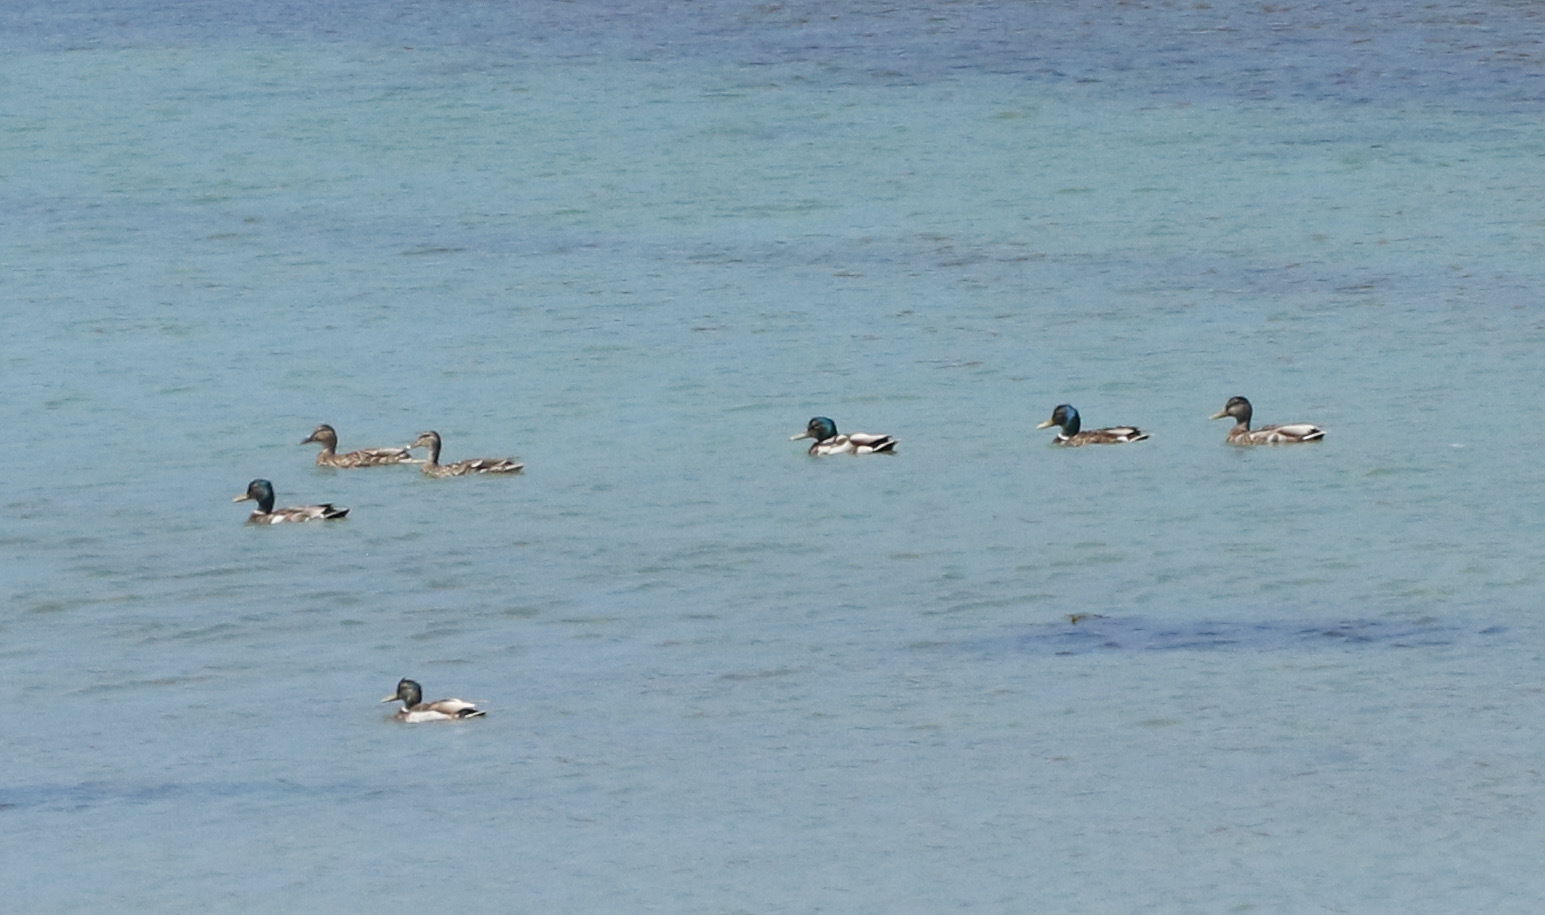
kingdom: Animalia
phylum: Chordata
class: Aves
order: Anseriformes
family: Anatidae
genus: Anas
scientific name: Anas platyrhynchos
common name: Mallard
